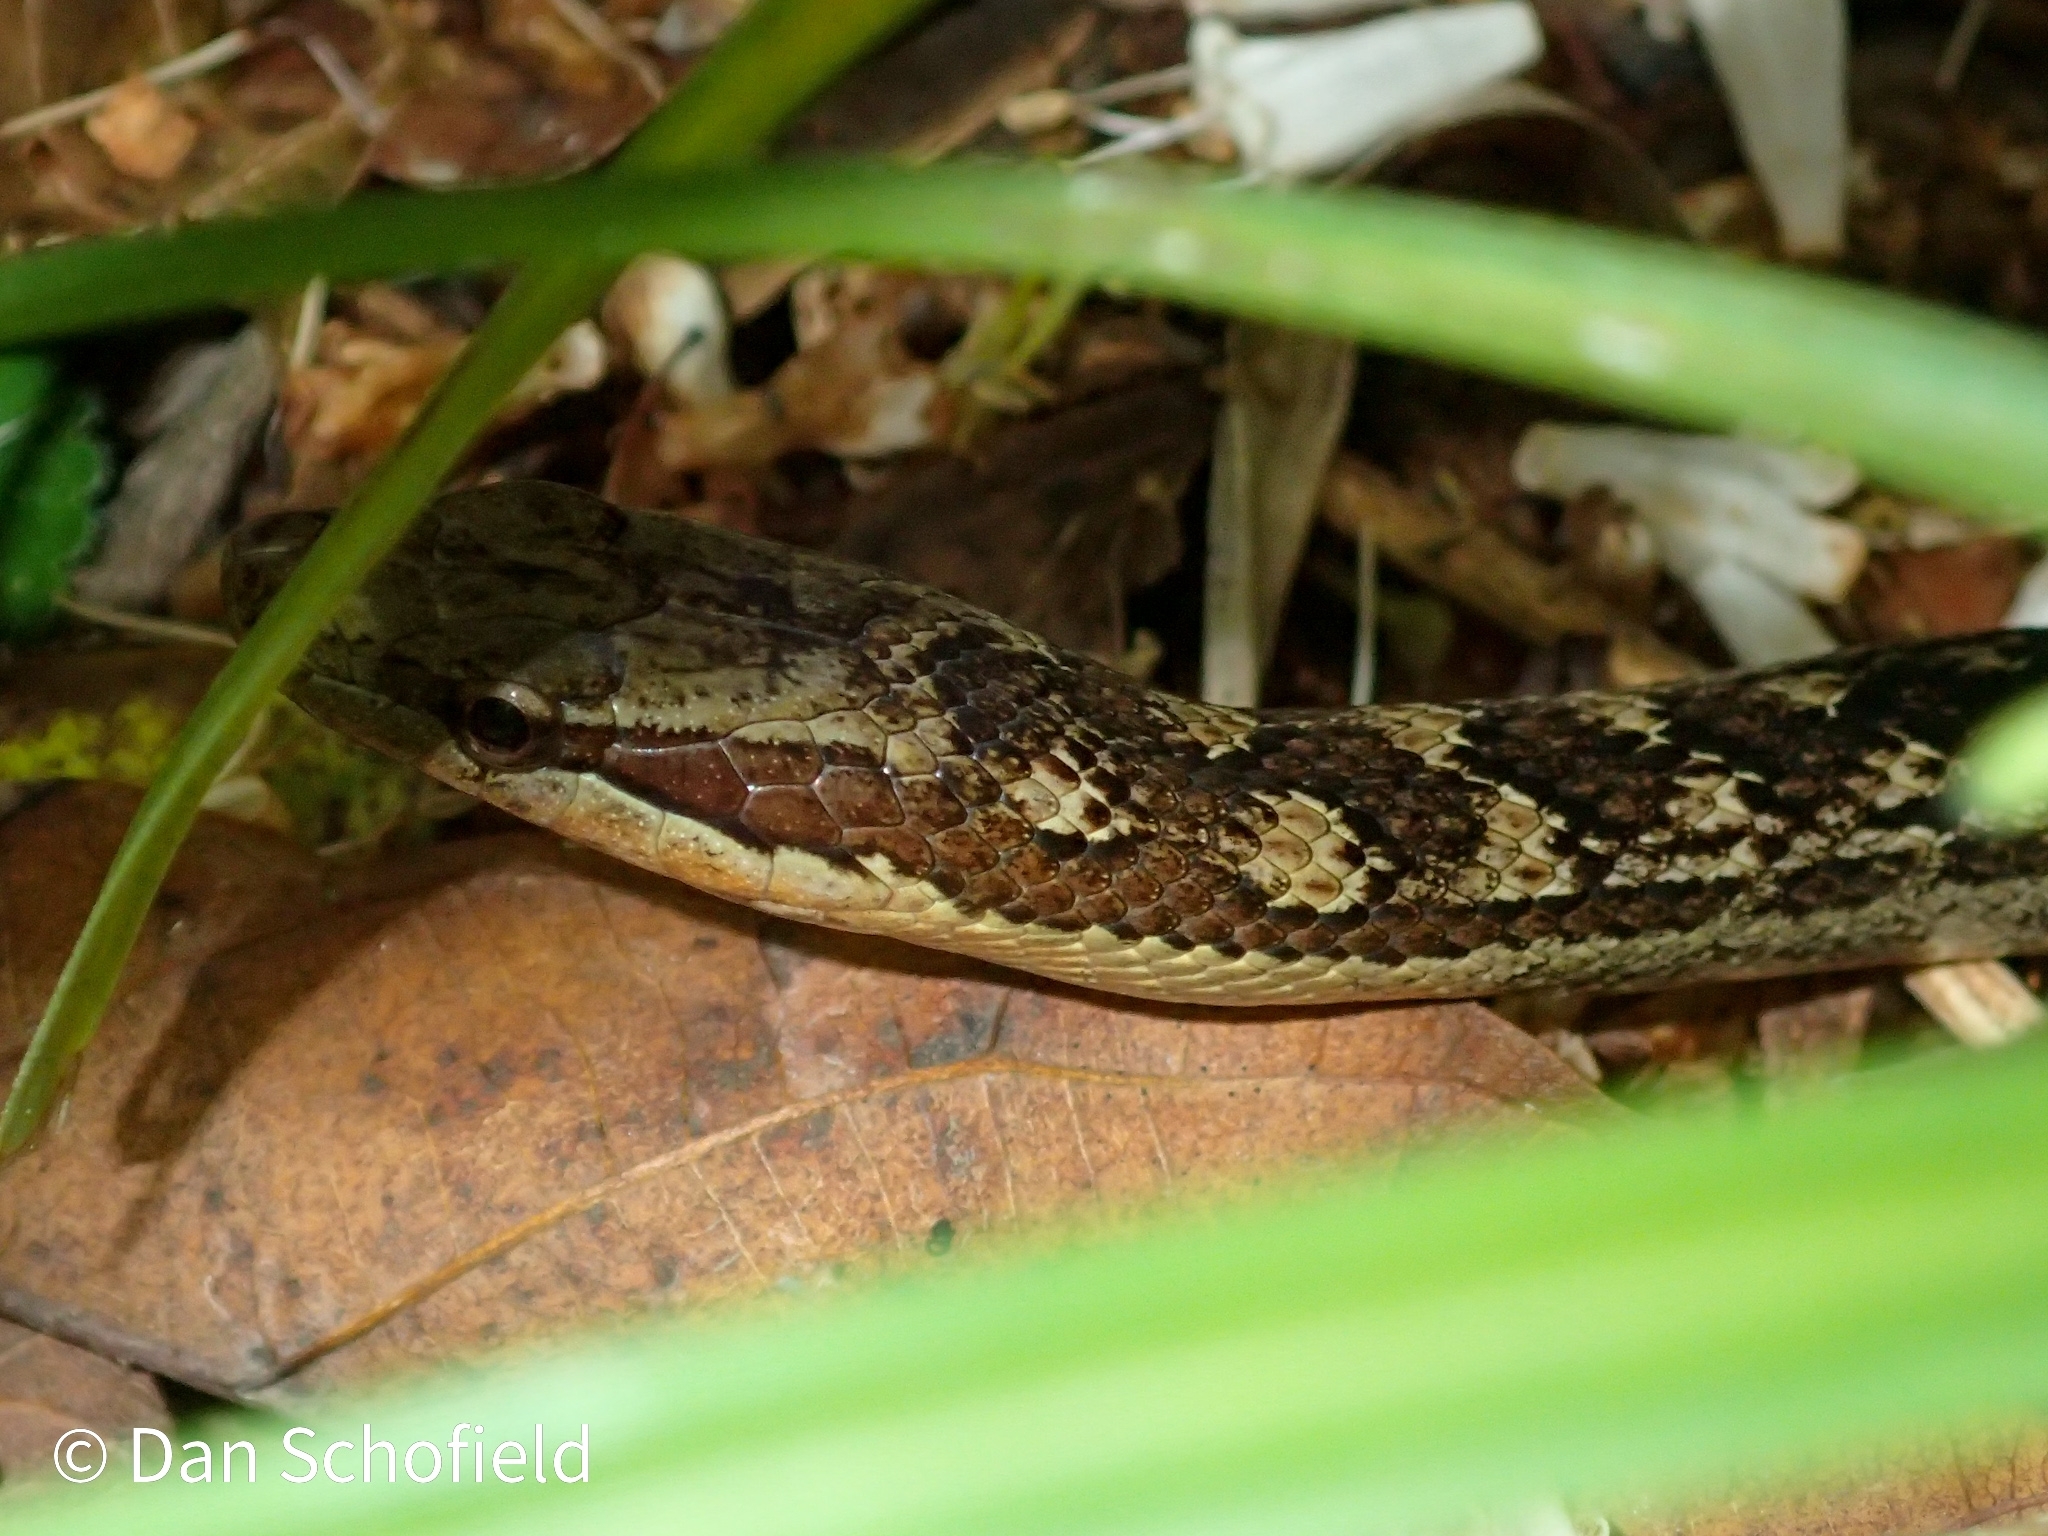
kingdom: Animalia
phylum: Chordata
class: Squamata
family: Colubridae
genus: Alsophis
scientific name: Alsophis rufiventris
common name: Orange-bellied racer
